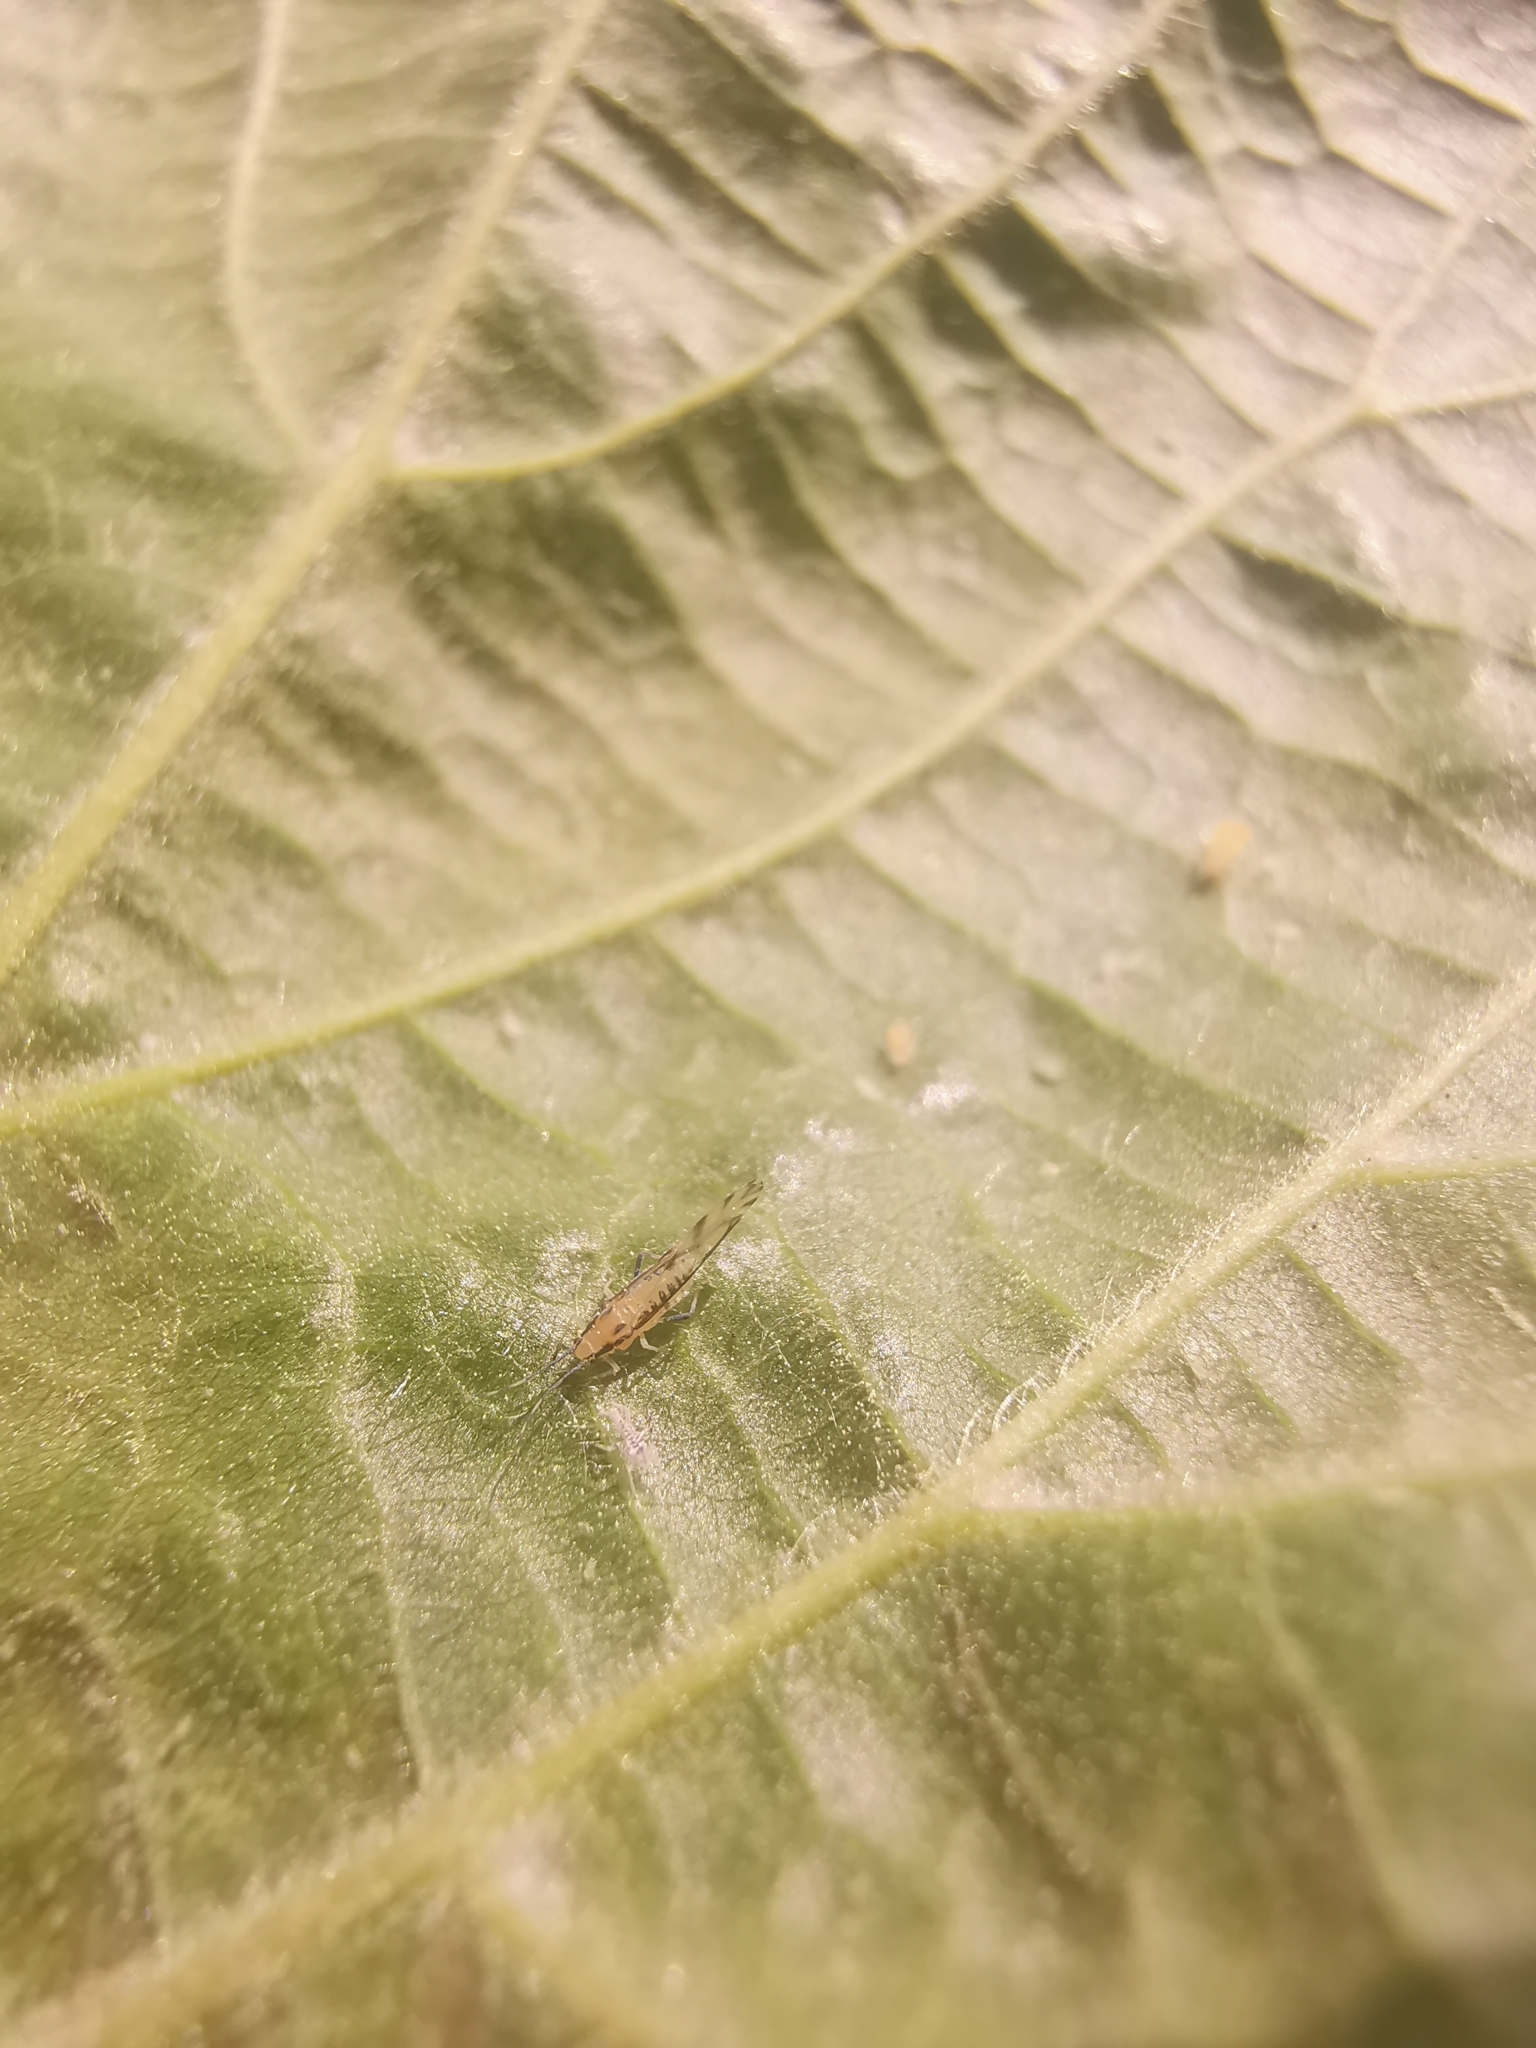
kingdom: Animalia
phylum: Arthropoda
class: Insecta
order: Hemiptera
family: Aphididae
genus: Eucallipterus
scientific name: Eucallipterus tiliae
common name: Aphid
